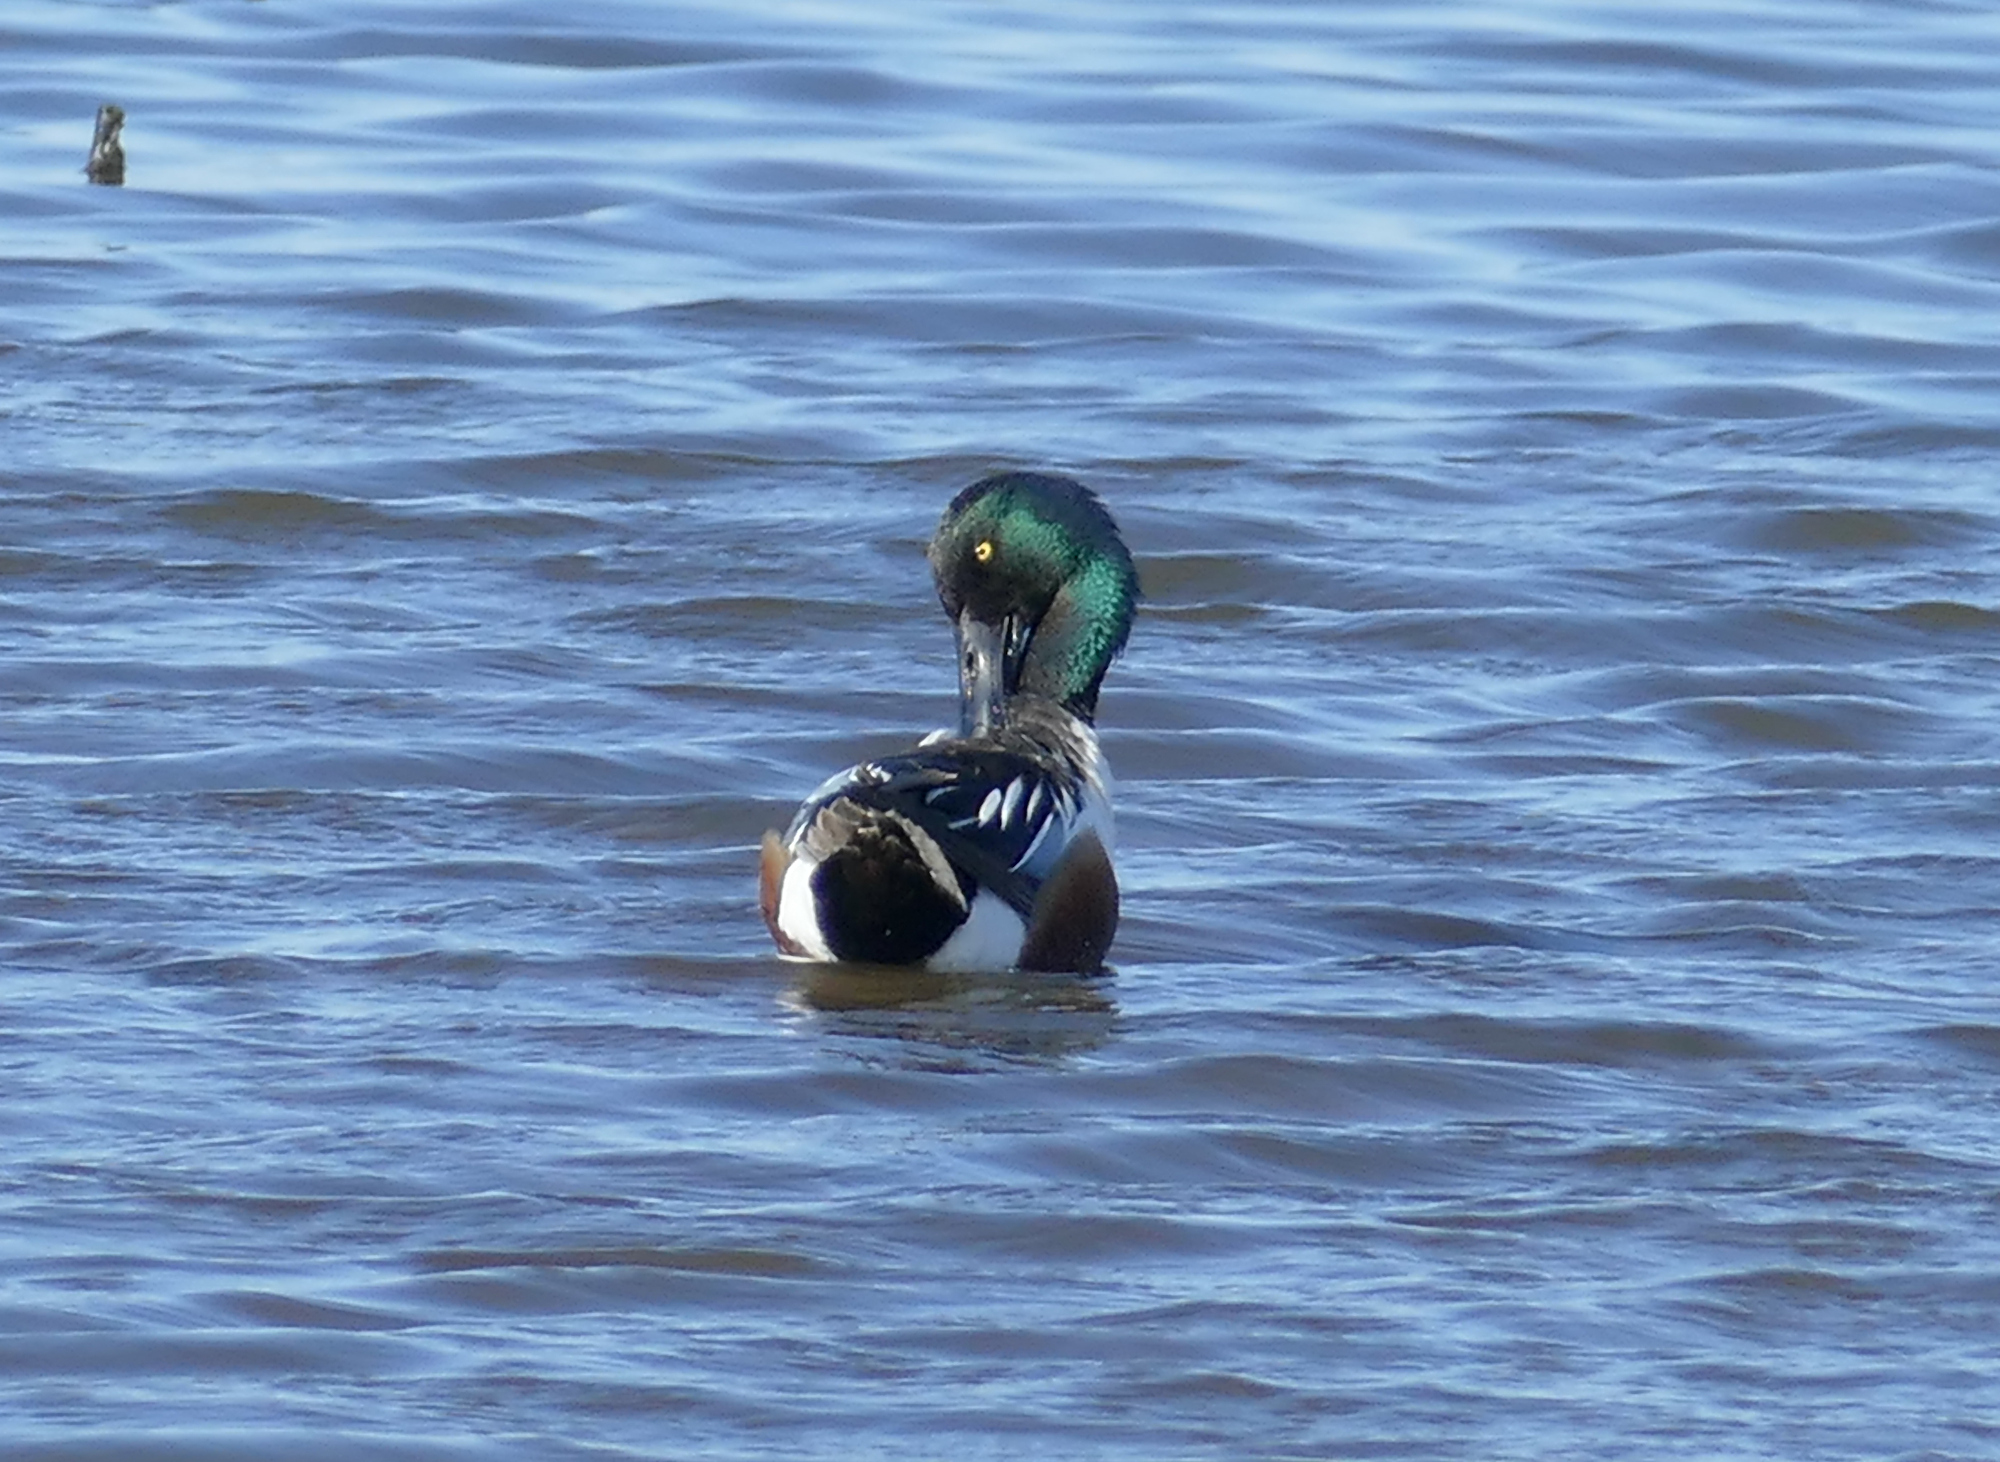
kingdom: Animalia
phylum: Chordata
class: Aves
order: Anseriformes
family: Anatidae
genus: Spatula
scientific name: Spatula clypeata
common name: Northern shoveler
